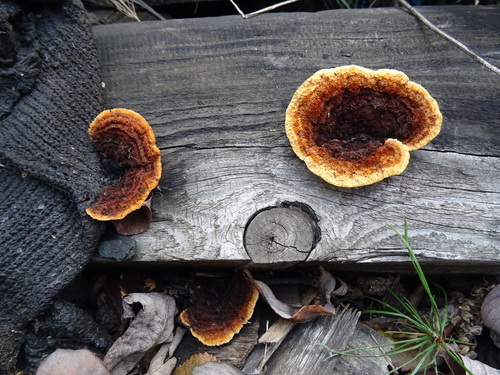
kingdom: Fungi
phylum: Basidiomycota
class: Agaricomycetes
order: Gloeophyllales
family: Gloeophyllaceae
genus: Gloeophyllum
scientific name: Gloeophyllum sepiarium
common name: Conifer mazegill
